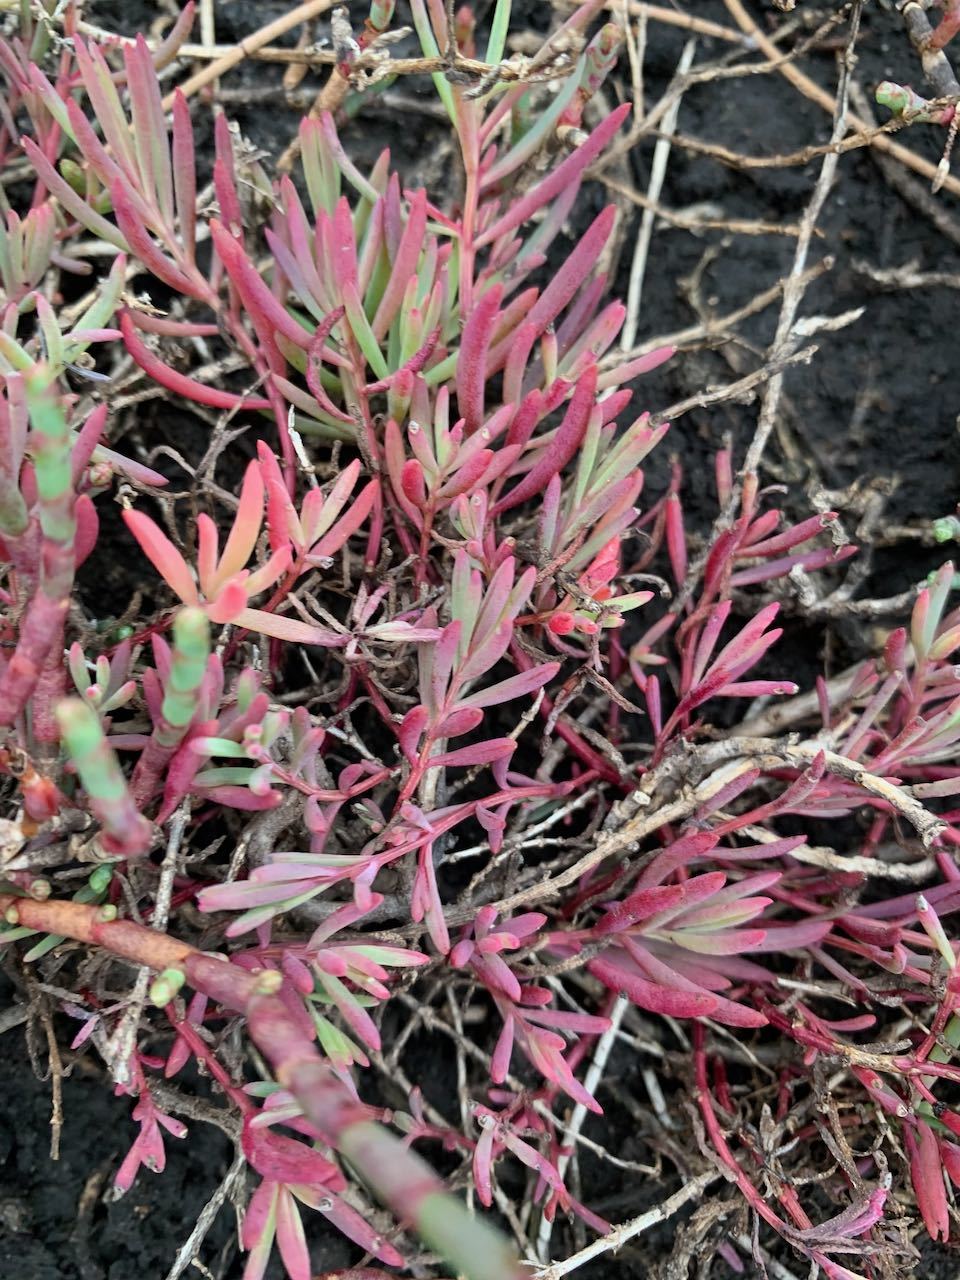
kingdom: Plantae
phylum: Tracheophyta
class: Magnoliopsida
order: Caryophyllales
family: Amaranthaceae
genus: Suaeda
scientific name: Suaeda australis
